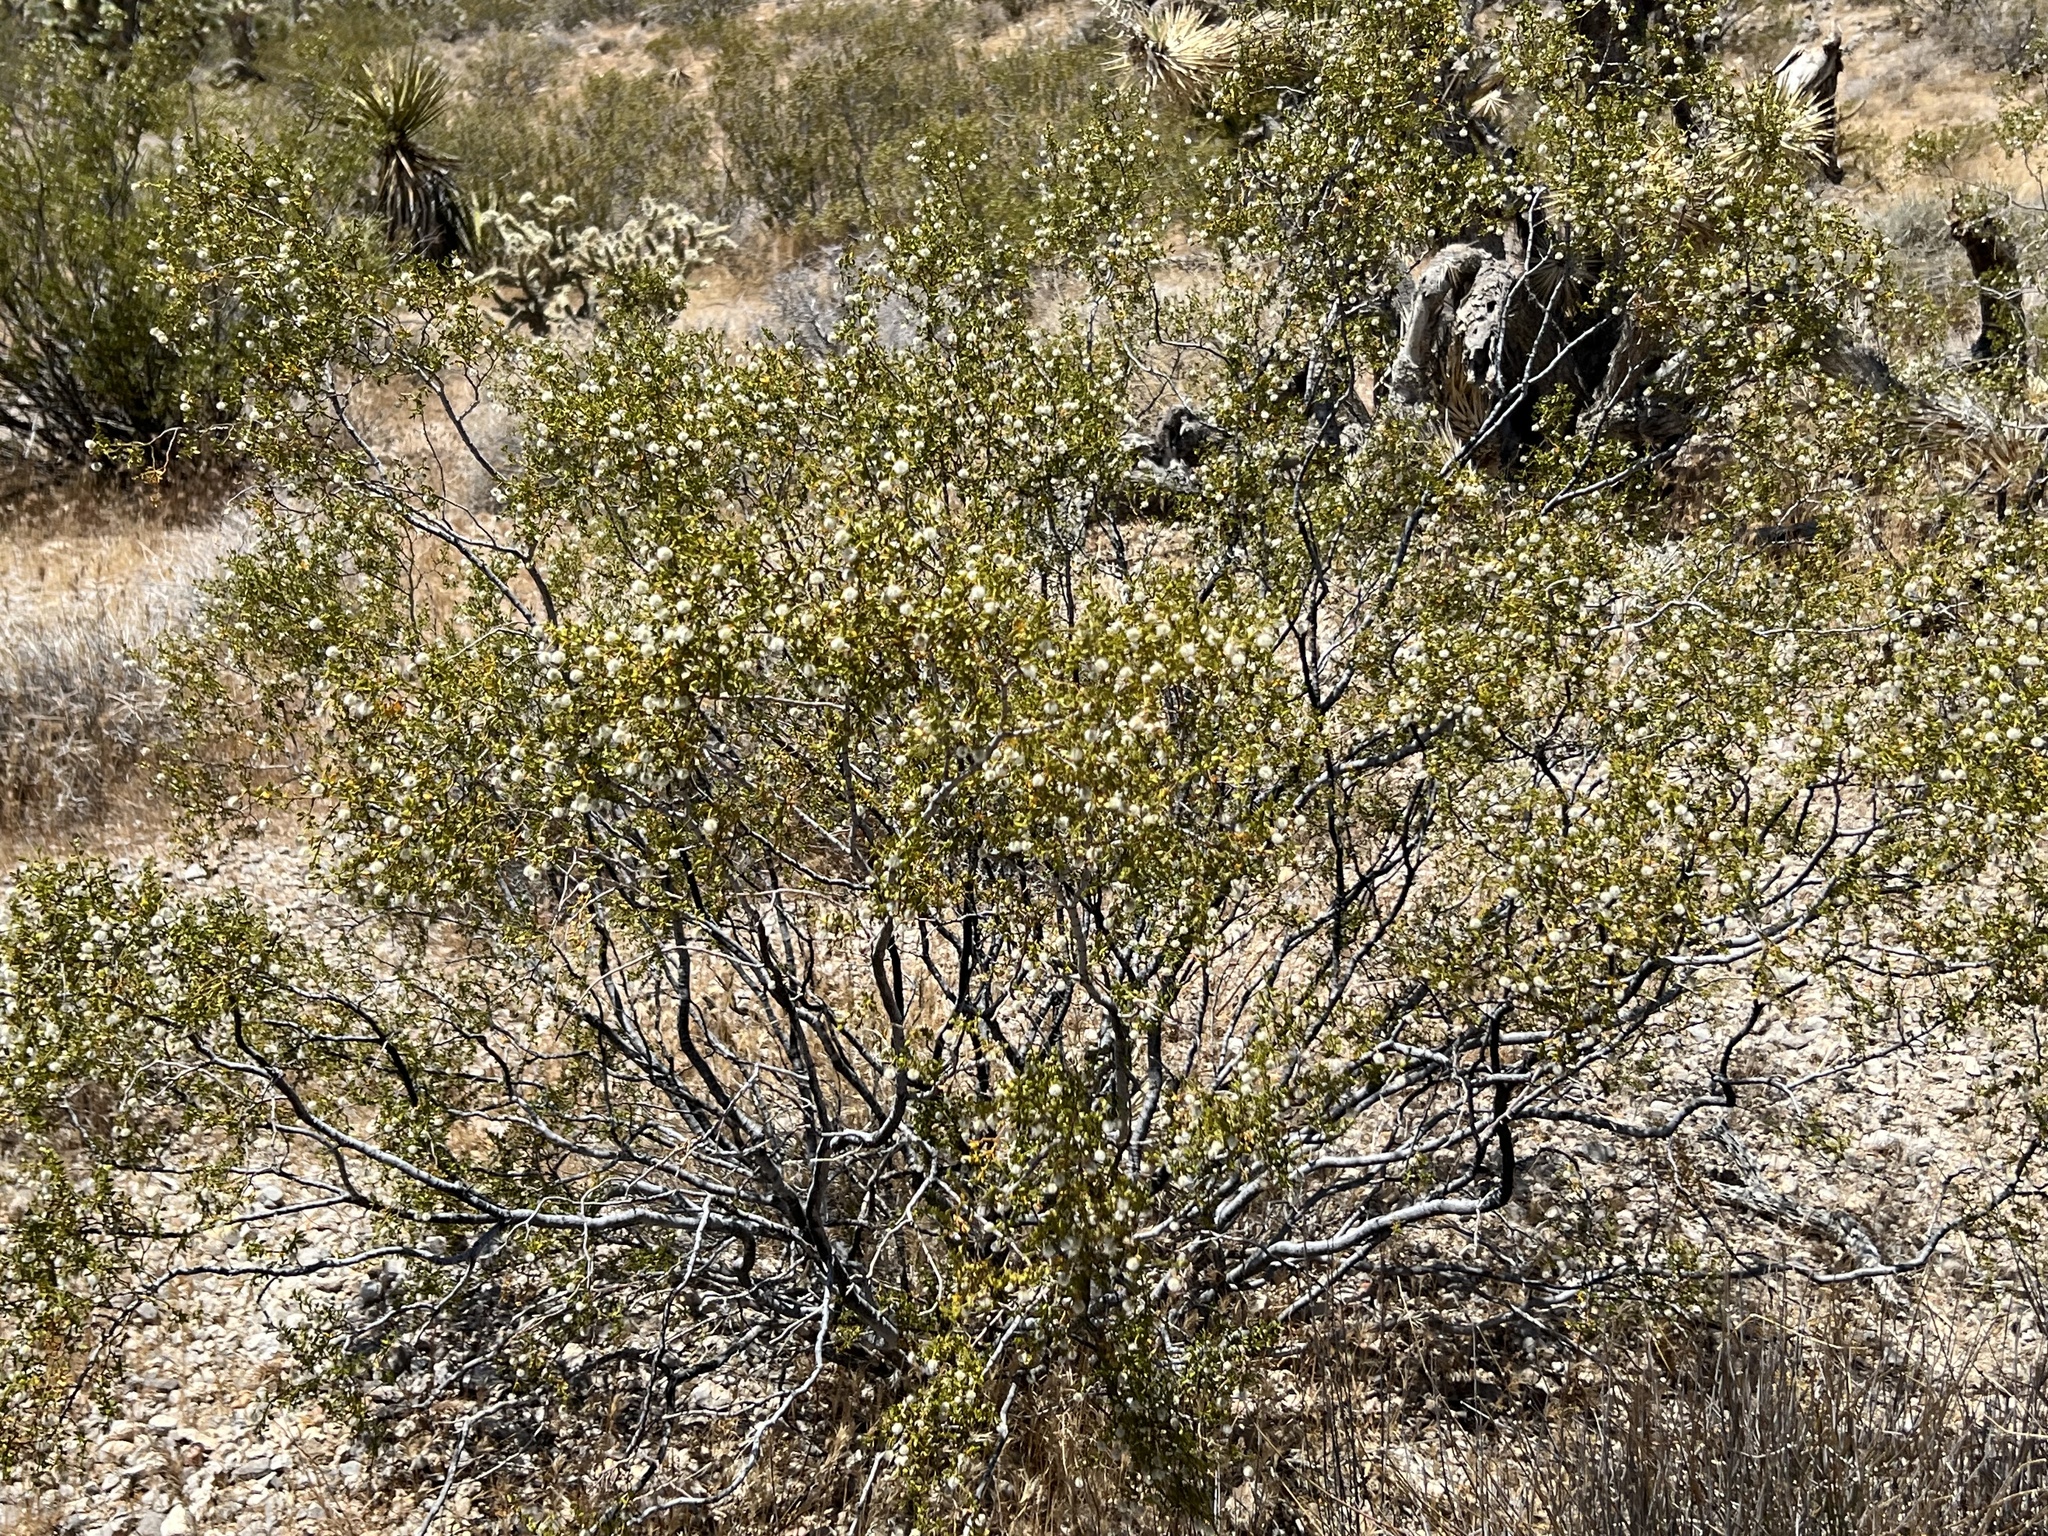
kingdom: Plantae
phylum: Tracheophyta
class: Magnoliopsida
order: Zygophyllales
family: Zygophyllaceae
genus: Larrea
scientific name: Larrea tridentata
